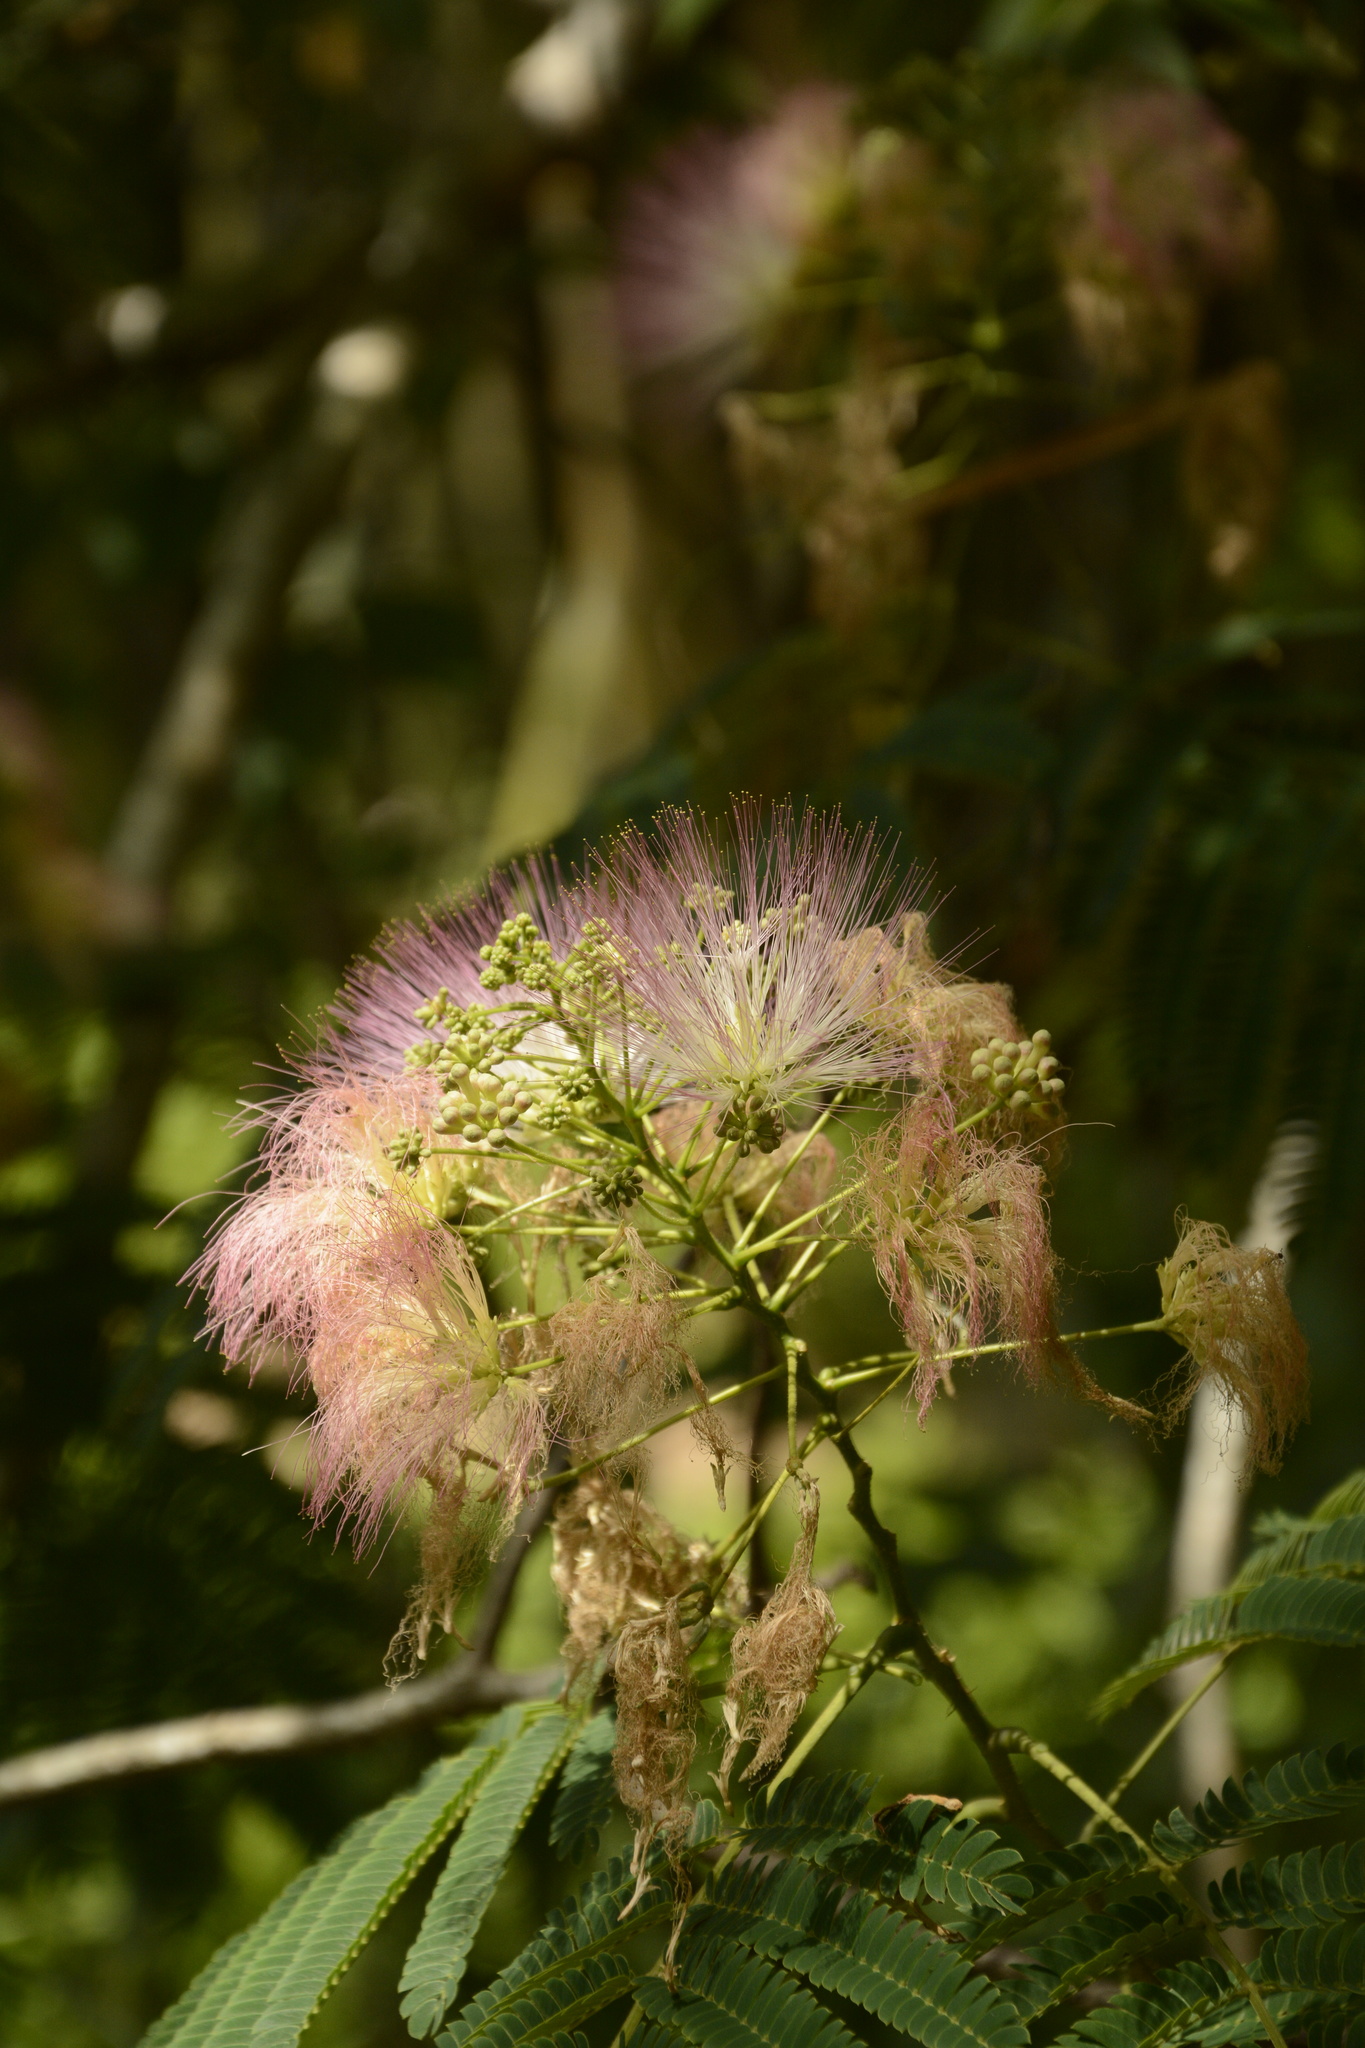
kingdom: Plantae
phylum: Tracheophyta
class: Magnoliopsida
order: Fabales
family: Fabaceae
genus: Albizia
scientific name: Albizia julibrissin
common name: Silktree
